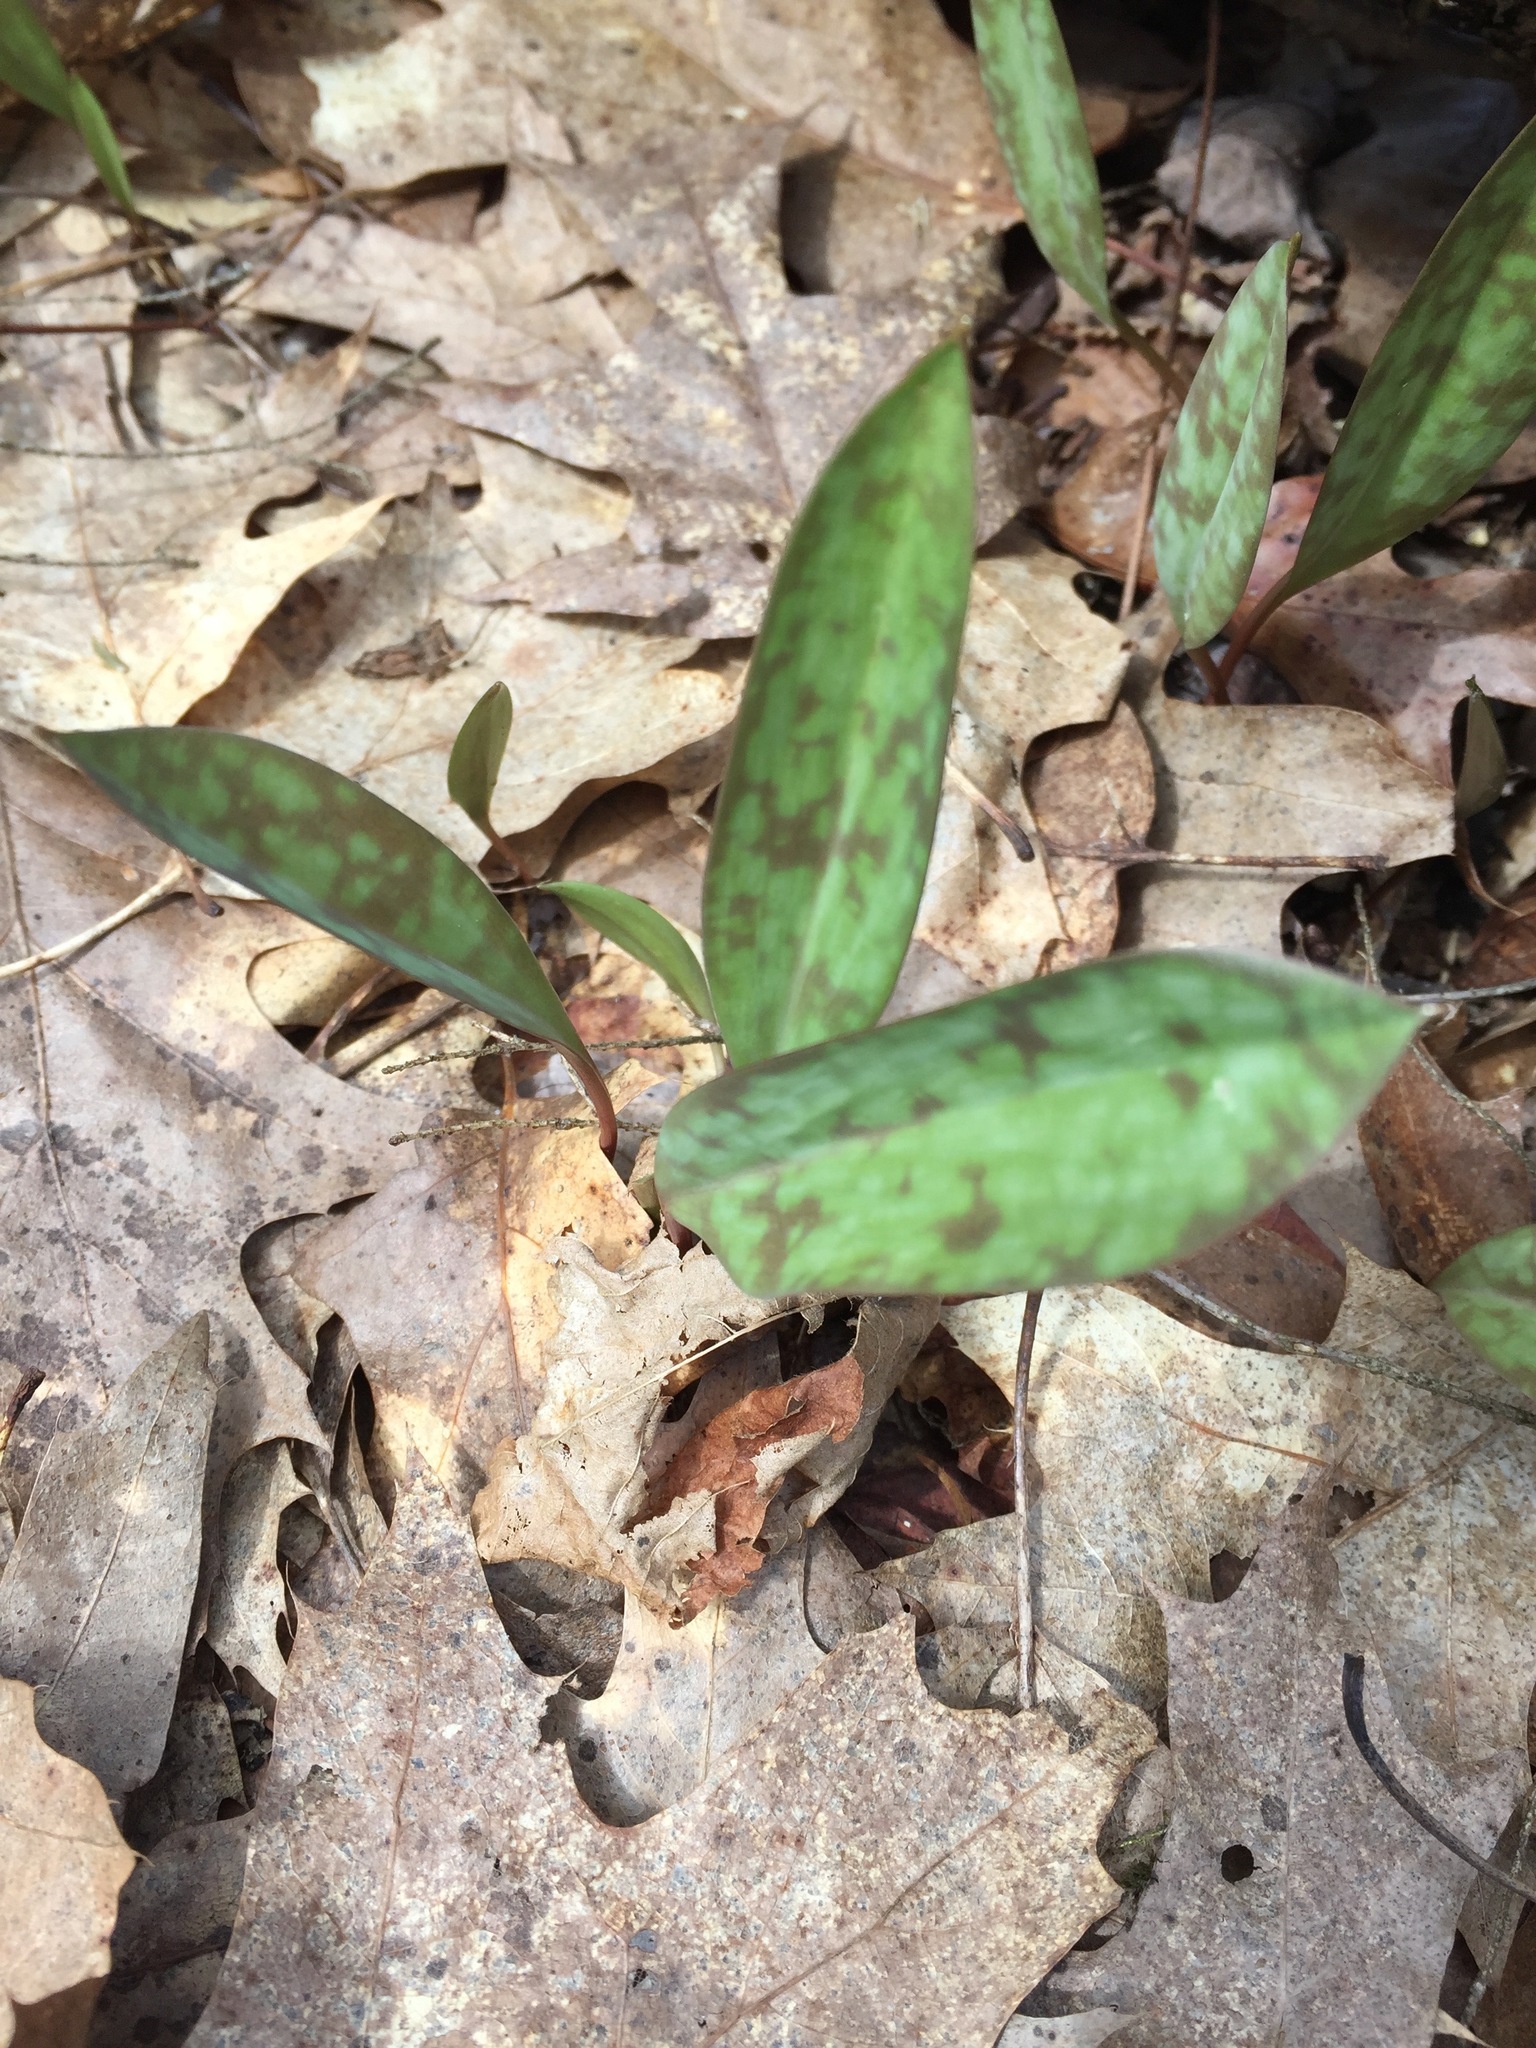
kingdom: Plantae
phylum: Tracheophyta
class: Liliopsida
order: Liliales
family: Liliaceae
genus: Erythronium
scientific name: Erythronium americanum
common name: Yellow adder's-tongue
